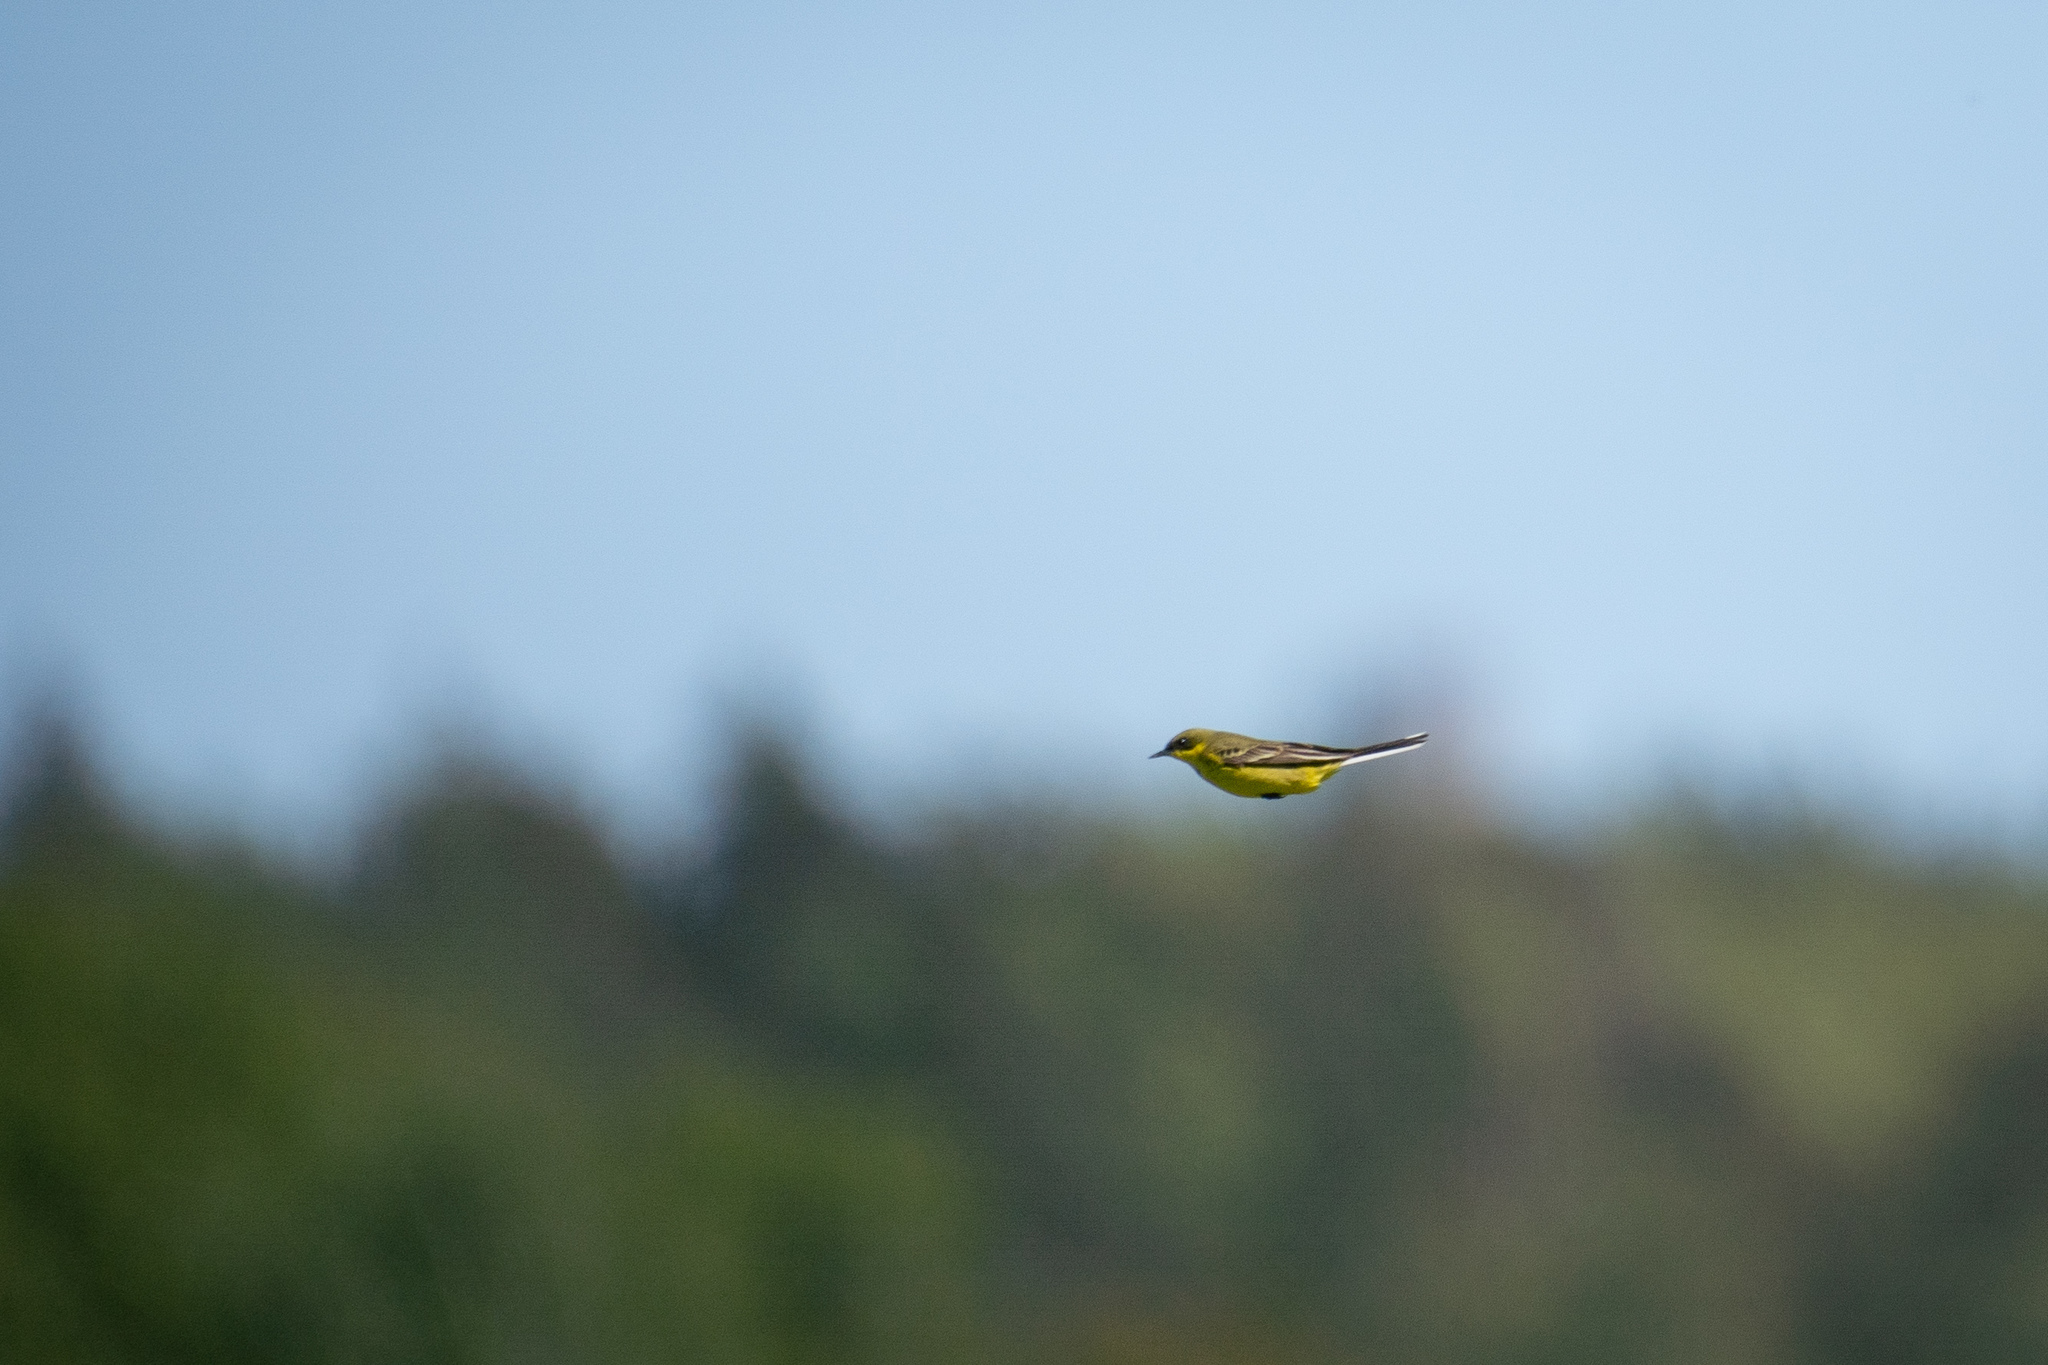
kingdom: Animalia
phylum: Chordata
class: Aves
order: Passeriformes
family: Motacillidae
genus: Motacilla
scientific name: Motacilla flava
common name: Western yellow wagtail
